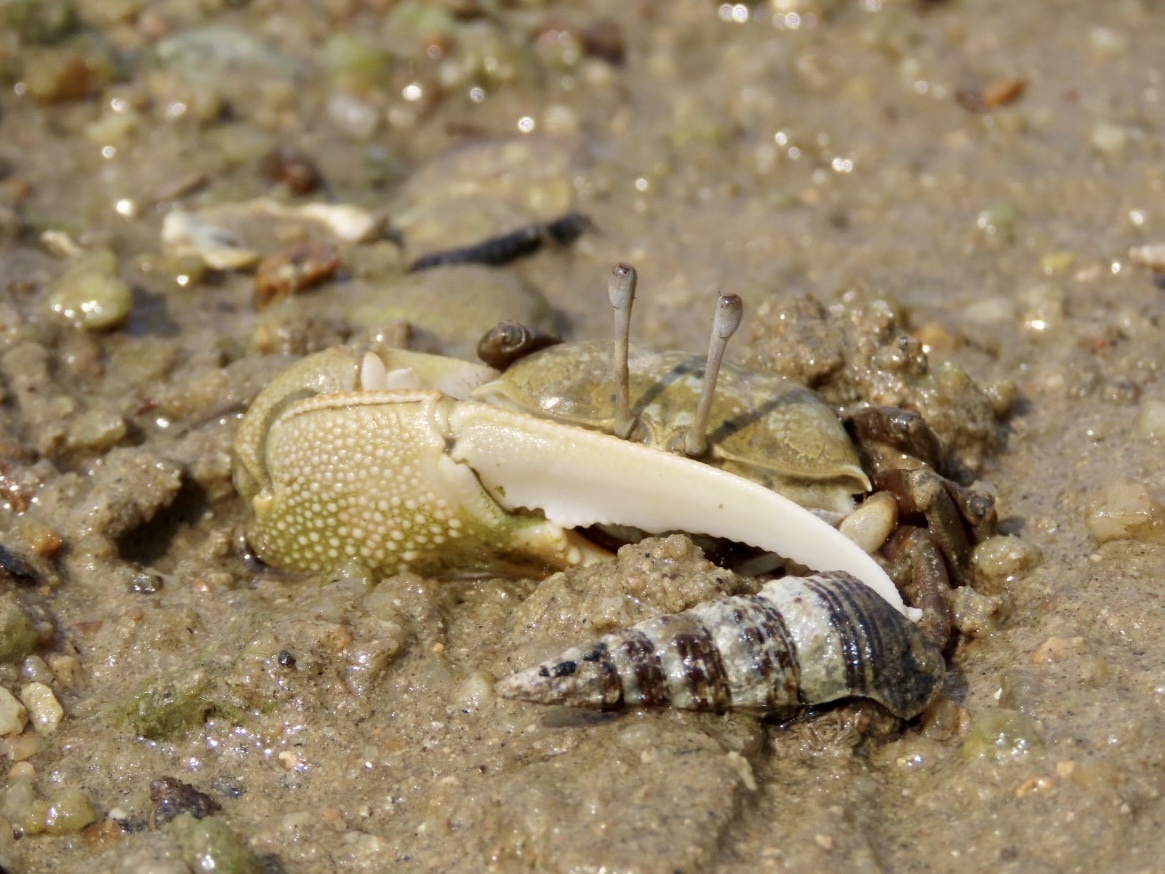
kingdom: Animalia
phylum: Arthropoda
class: Malacostraca
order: Decapoda
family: Ocypodidae
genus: Gelasimus
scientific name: Gelasimus borealis
